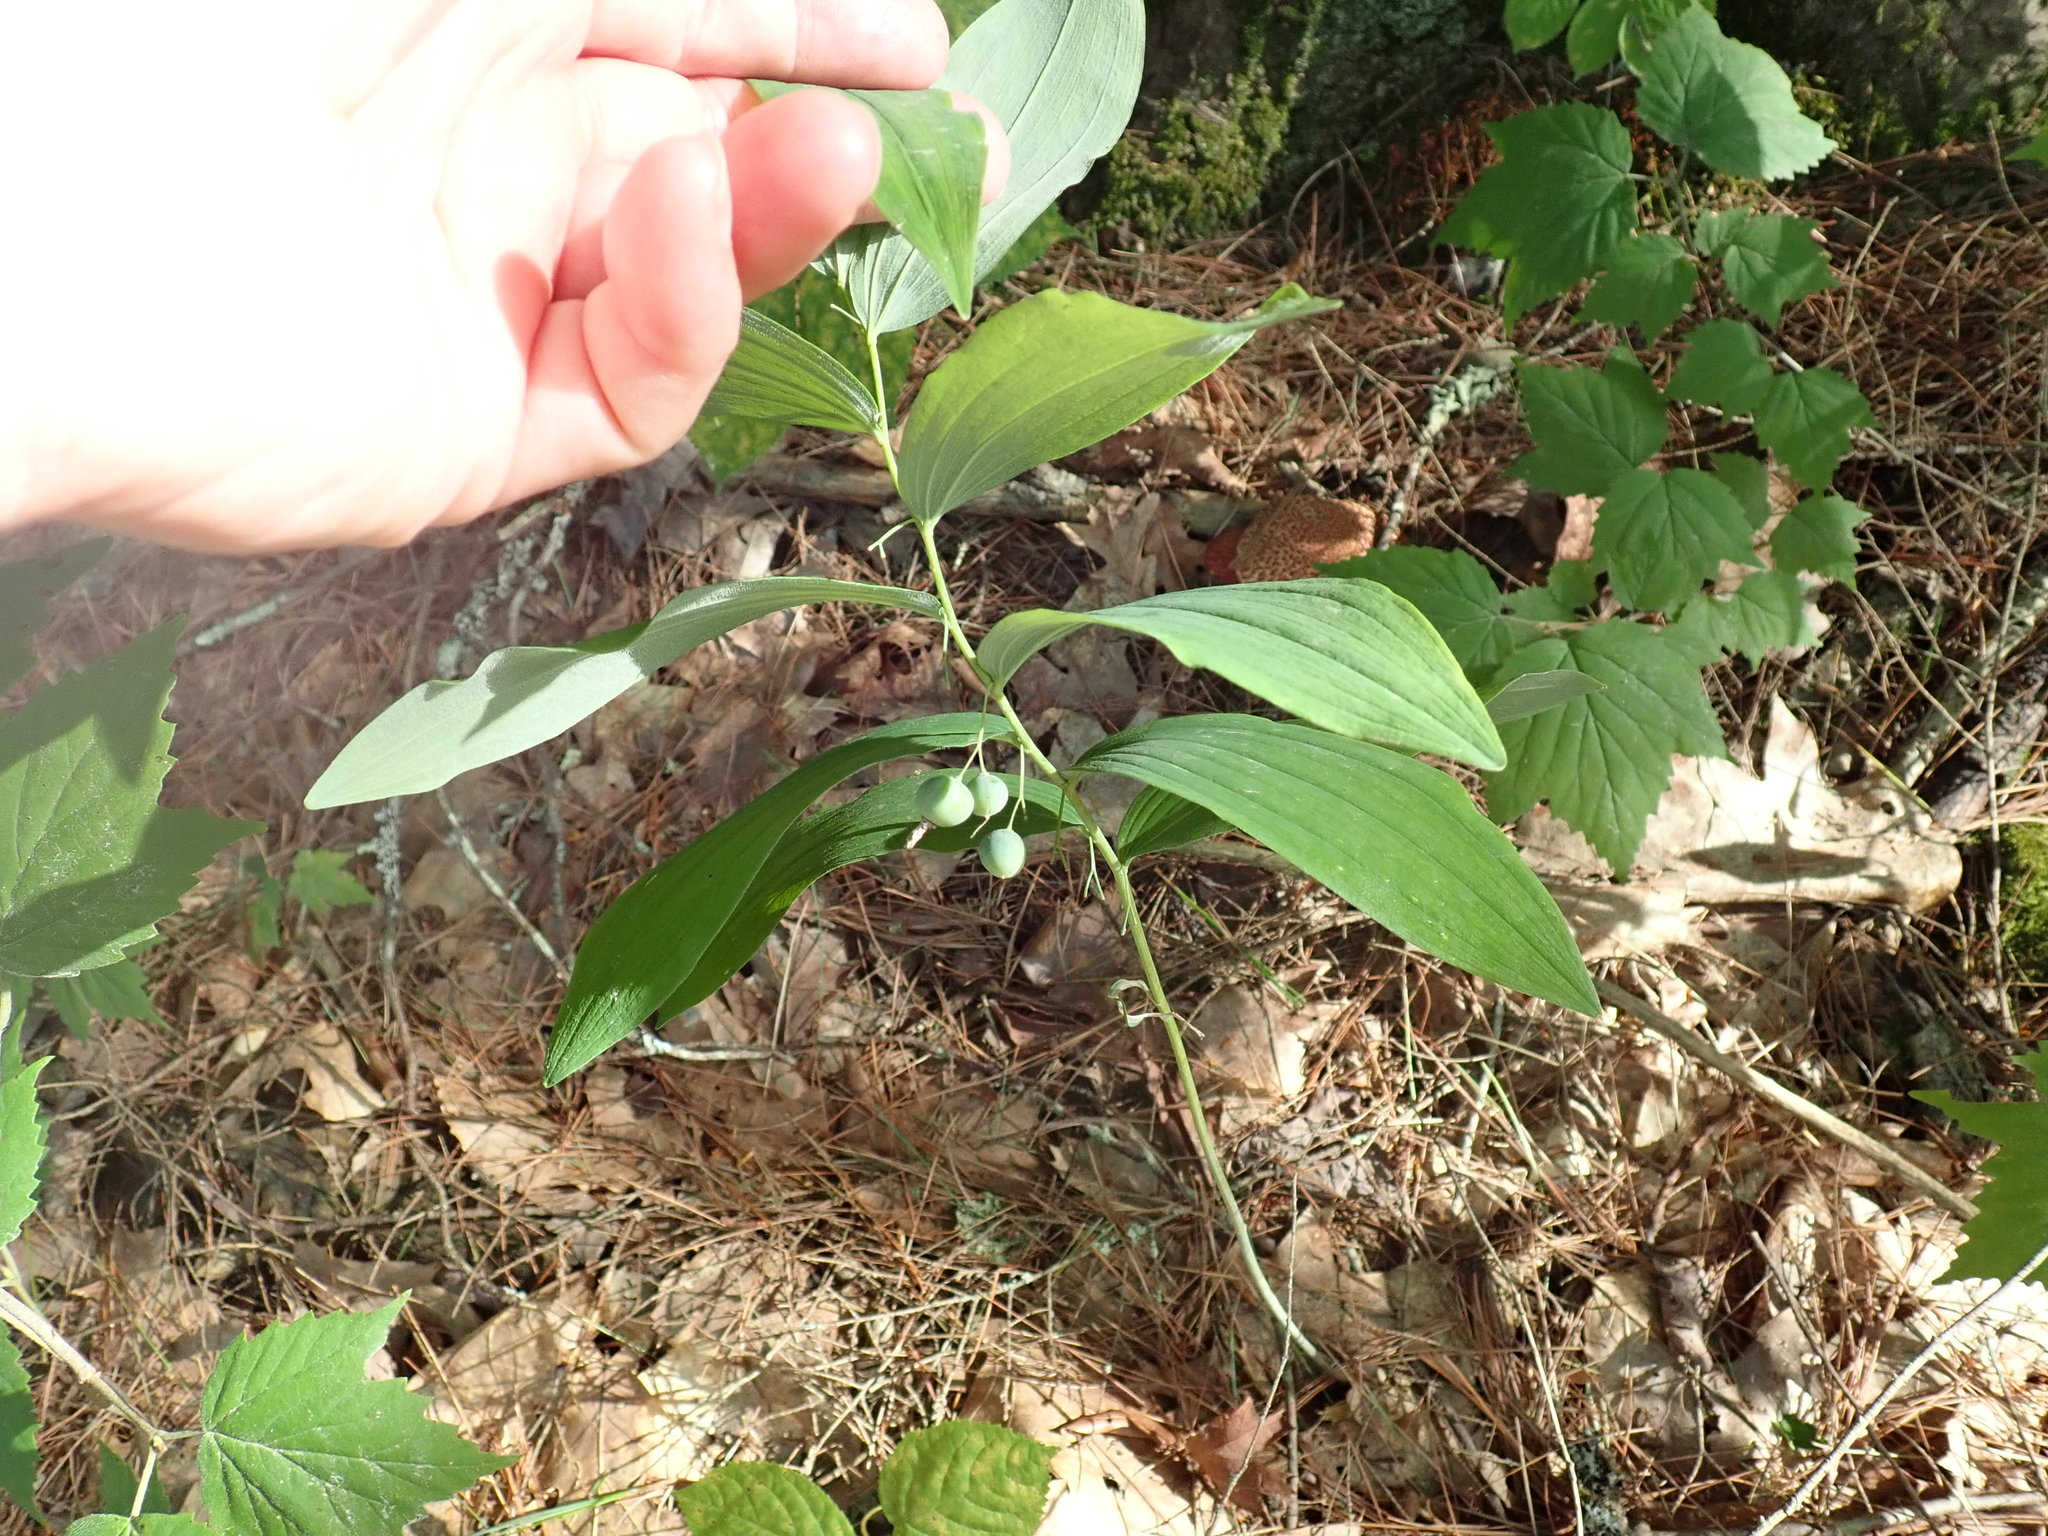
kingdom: Plantae
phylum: Tracheophyta
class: Liliopsida
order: Asparagales
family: Asparagaceae
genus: Polygonatum
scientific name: Polygonatum pubescens
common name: Downy solomon's seal
